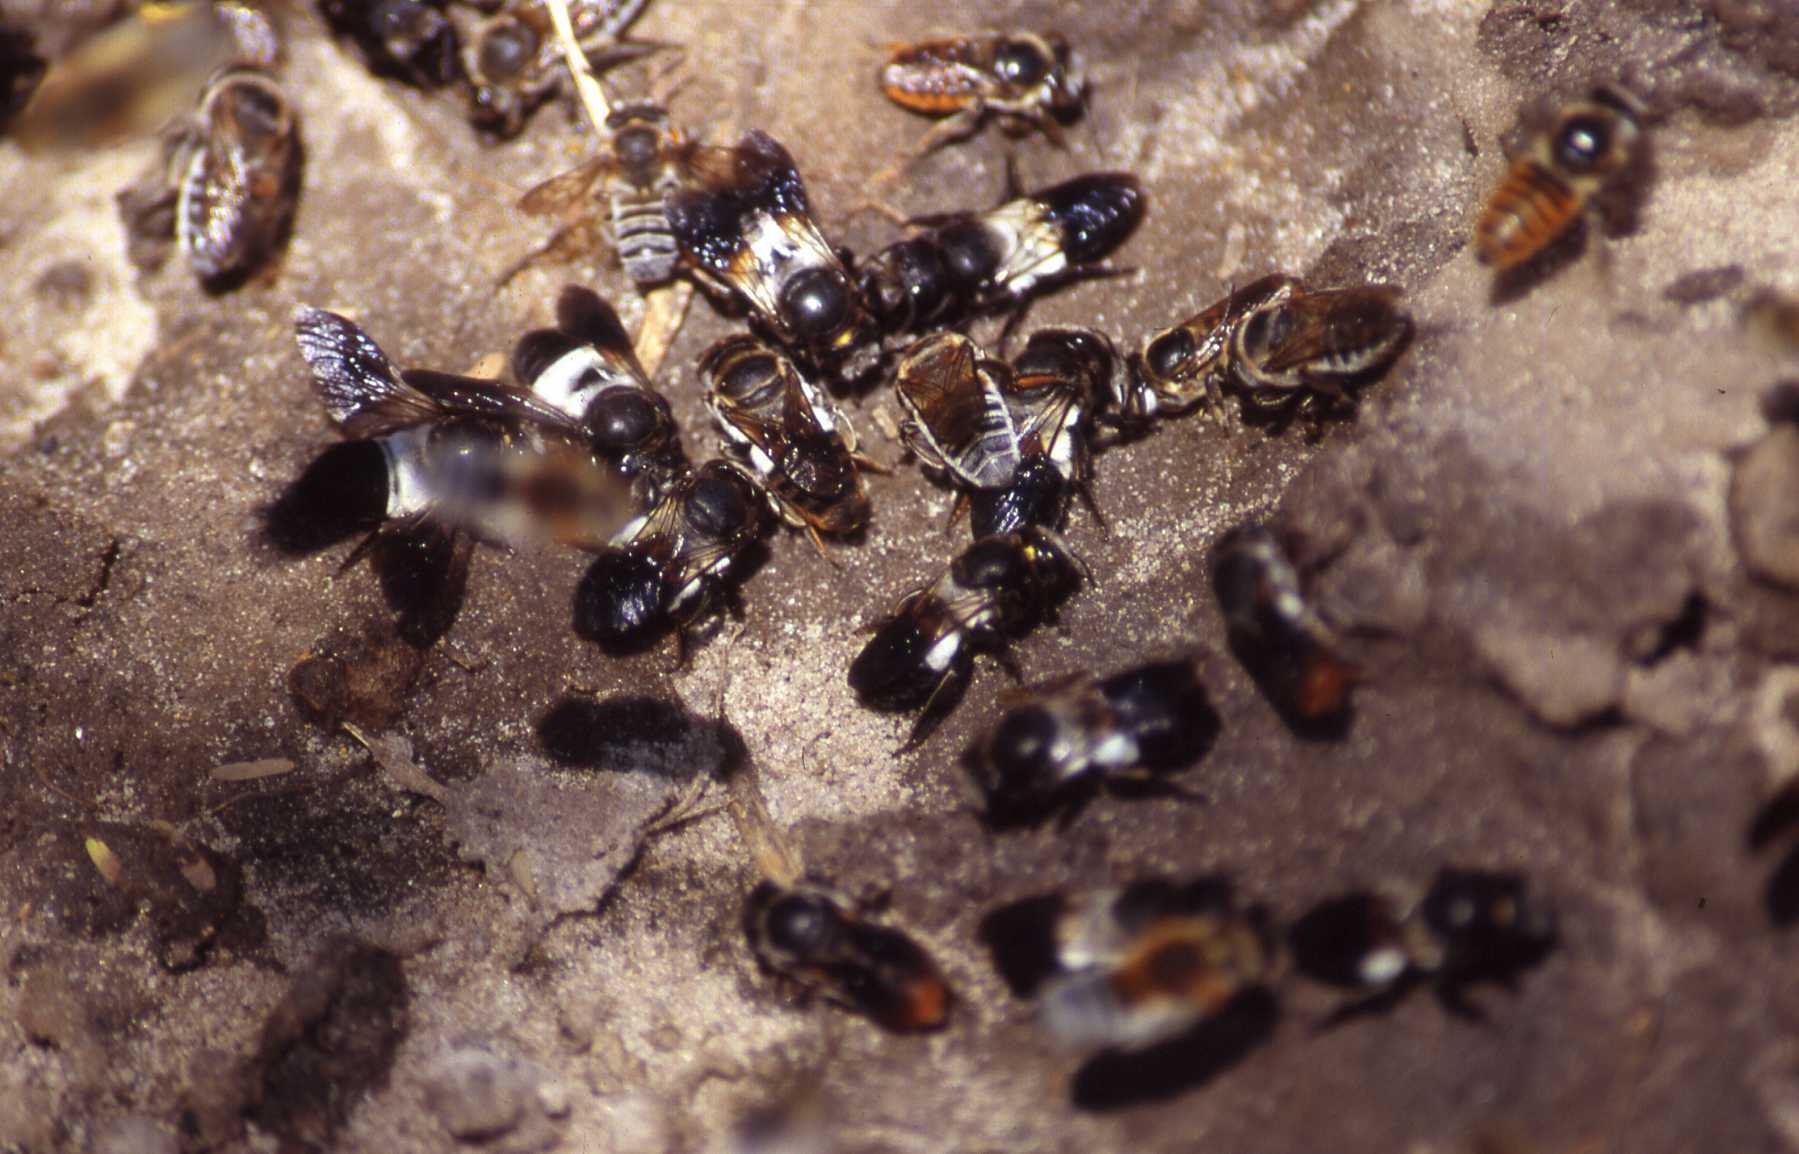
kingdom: Animalia
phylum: Arthropoda
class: Insecta
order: Hymenoptera
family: Megachilidae
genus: Gronoceras
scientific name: Gronoceras felinum
